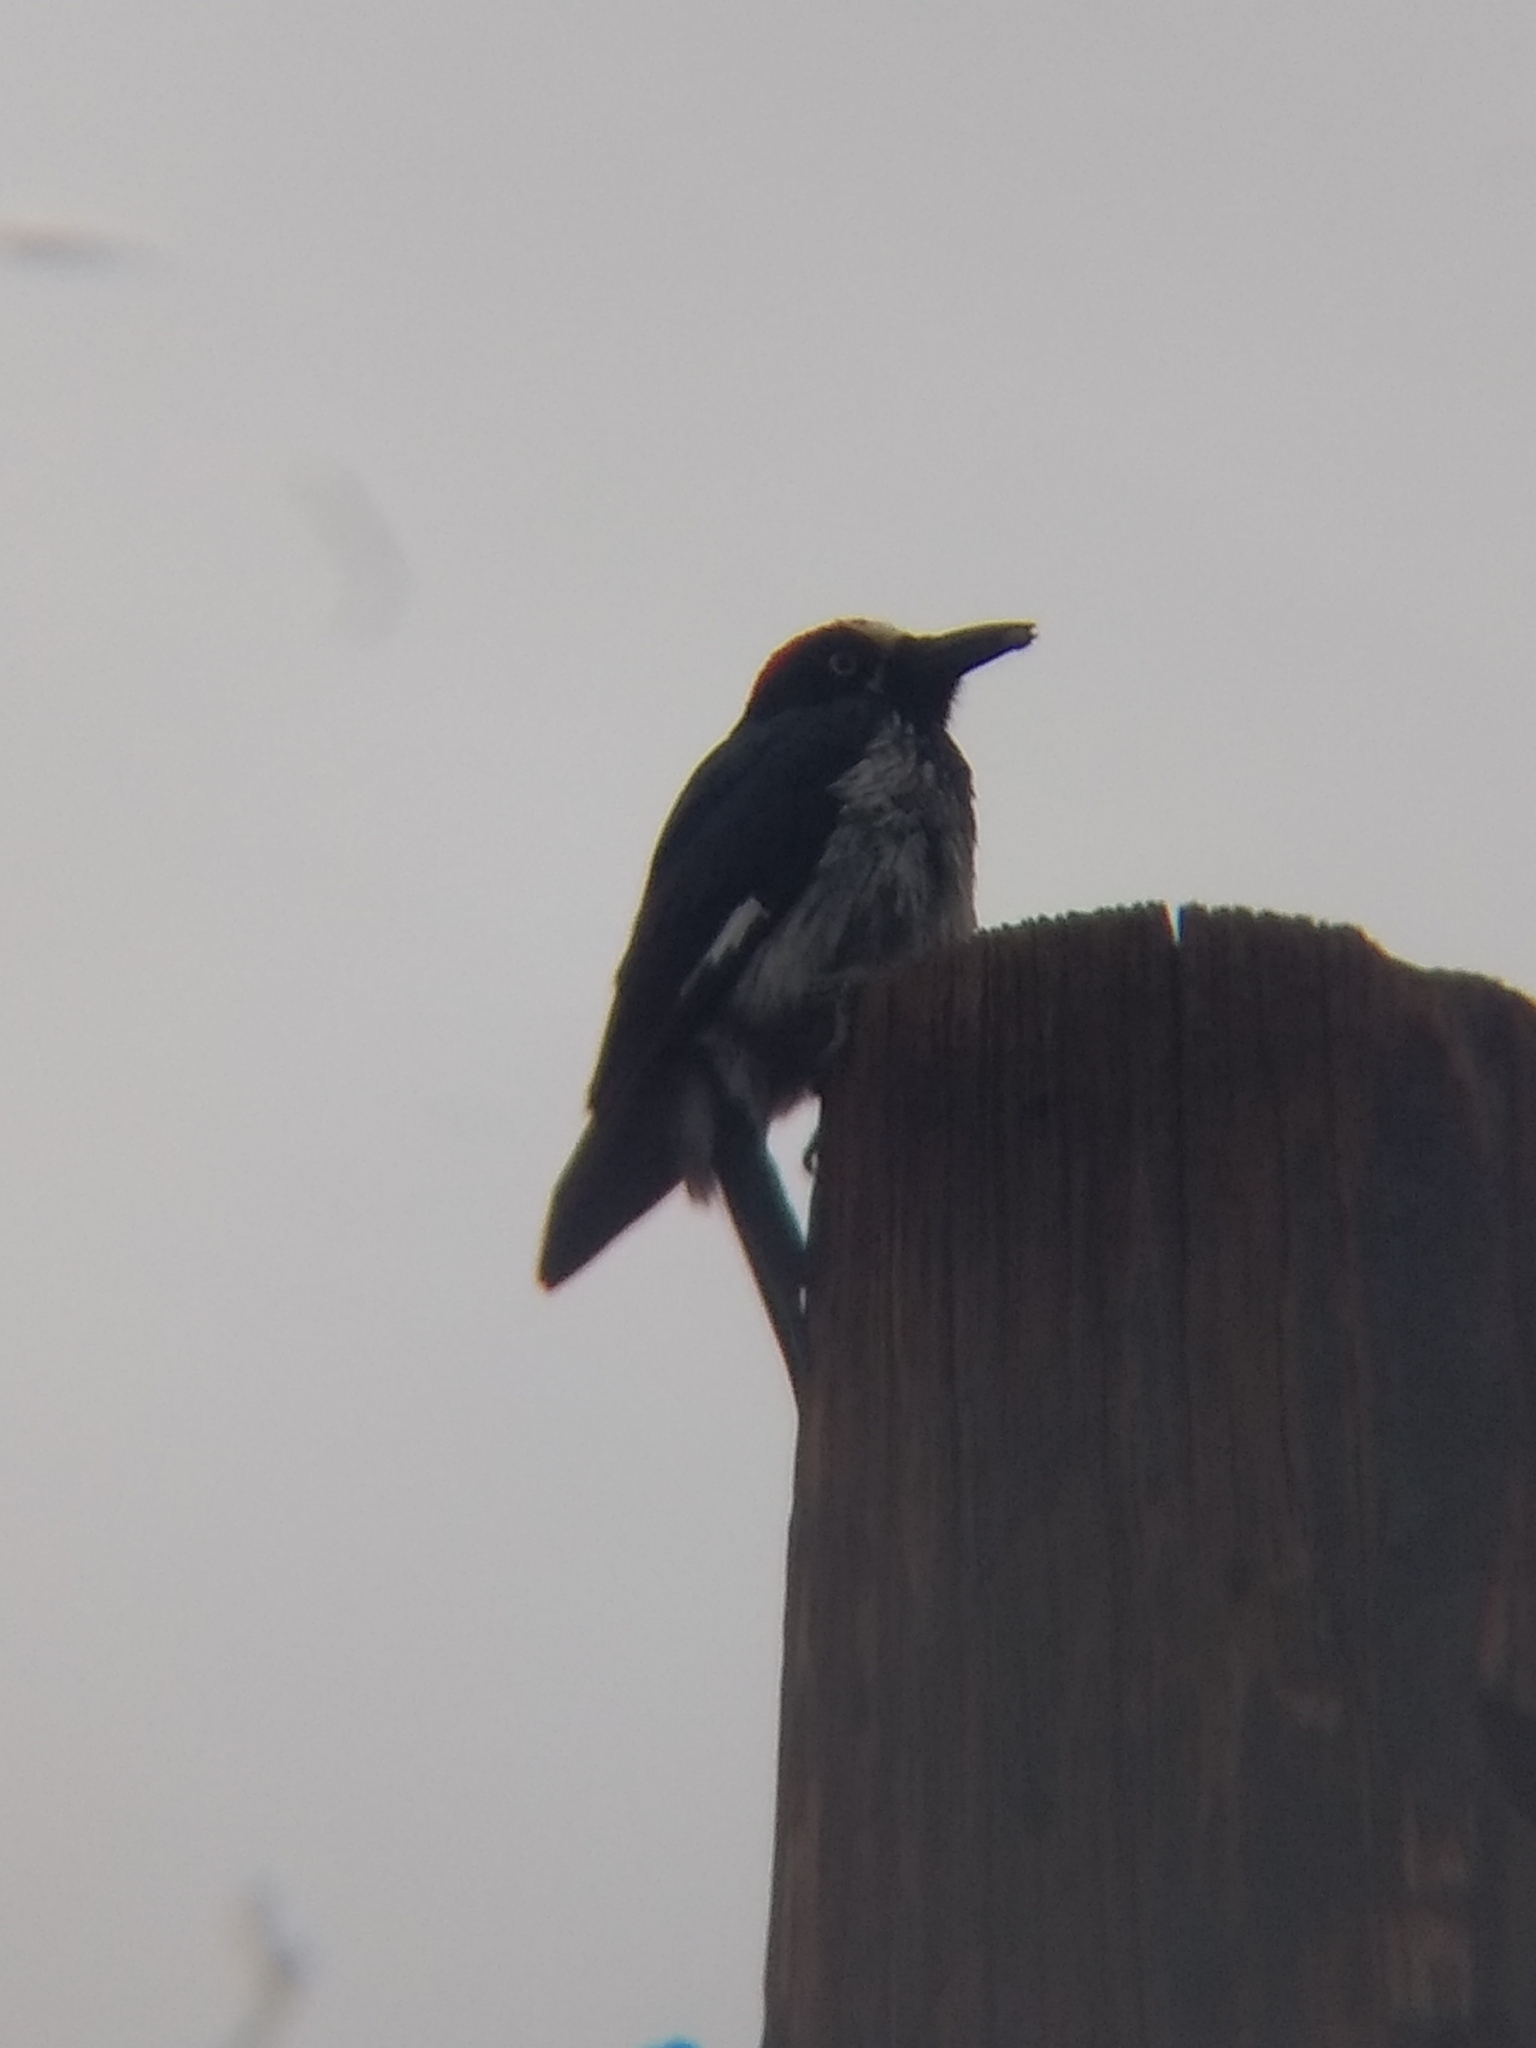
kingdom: Animalia
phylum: Chordata
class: Aves
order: Piciformes
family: Picidae
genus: Melanerpes
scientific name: Melanerpes formicivorus
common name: Acorn woodpecker
